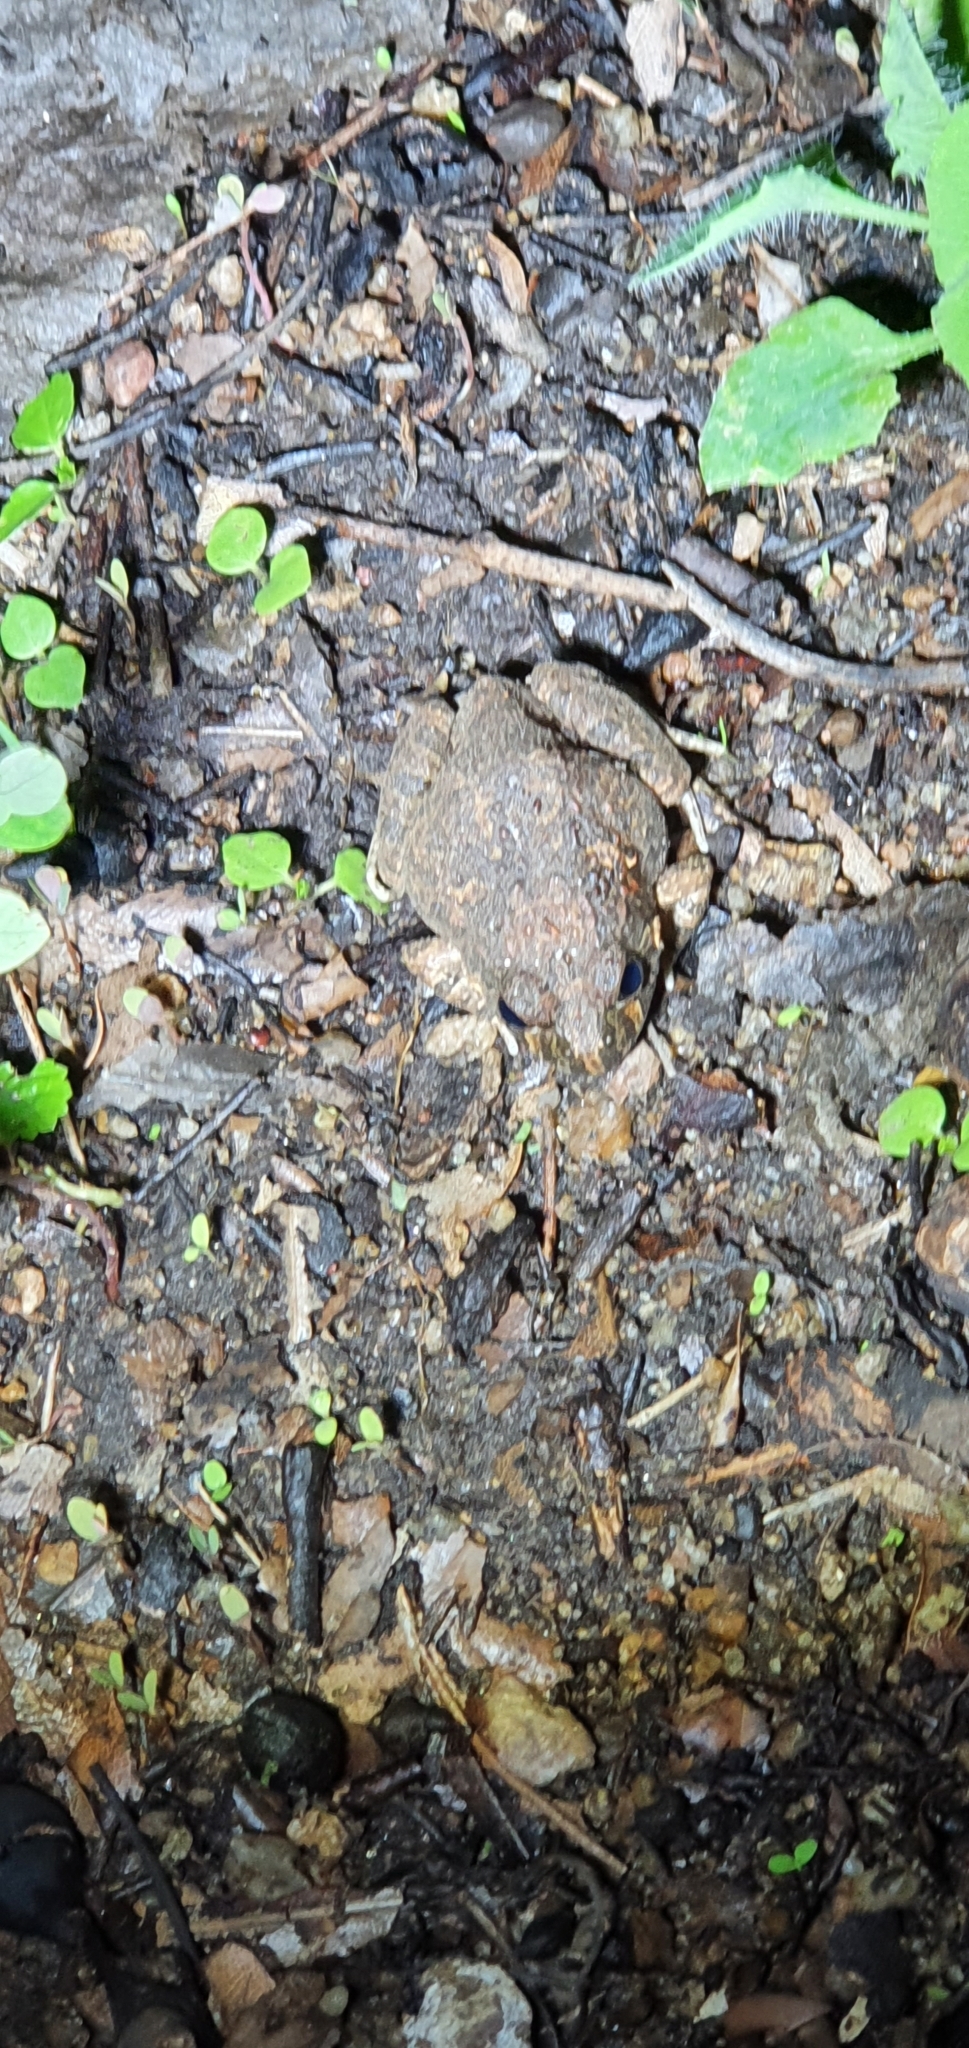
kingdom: Animalia
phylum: Chordata
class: Amphibia
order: Anura
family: Limnodynastidae
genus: Platyplectrum
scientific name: Platyplectrum ornatum
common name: Ornate burrowing frog
